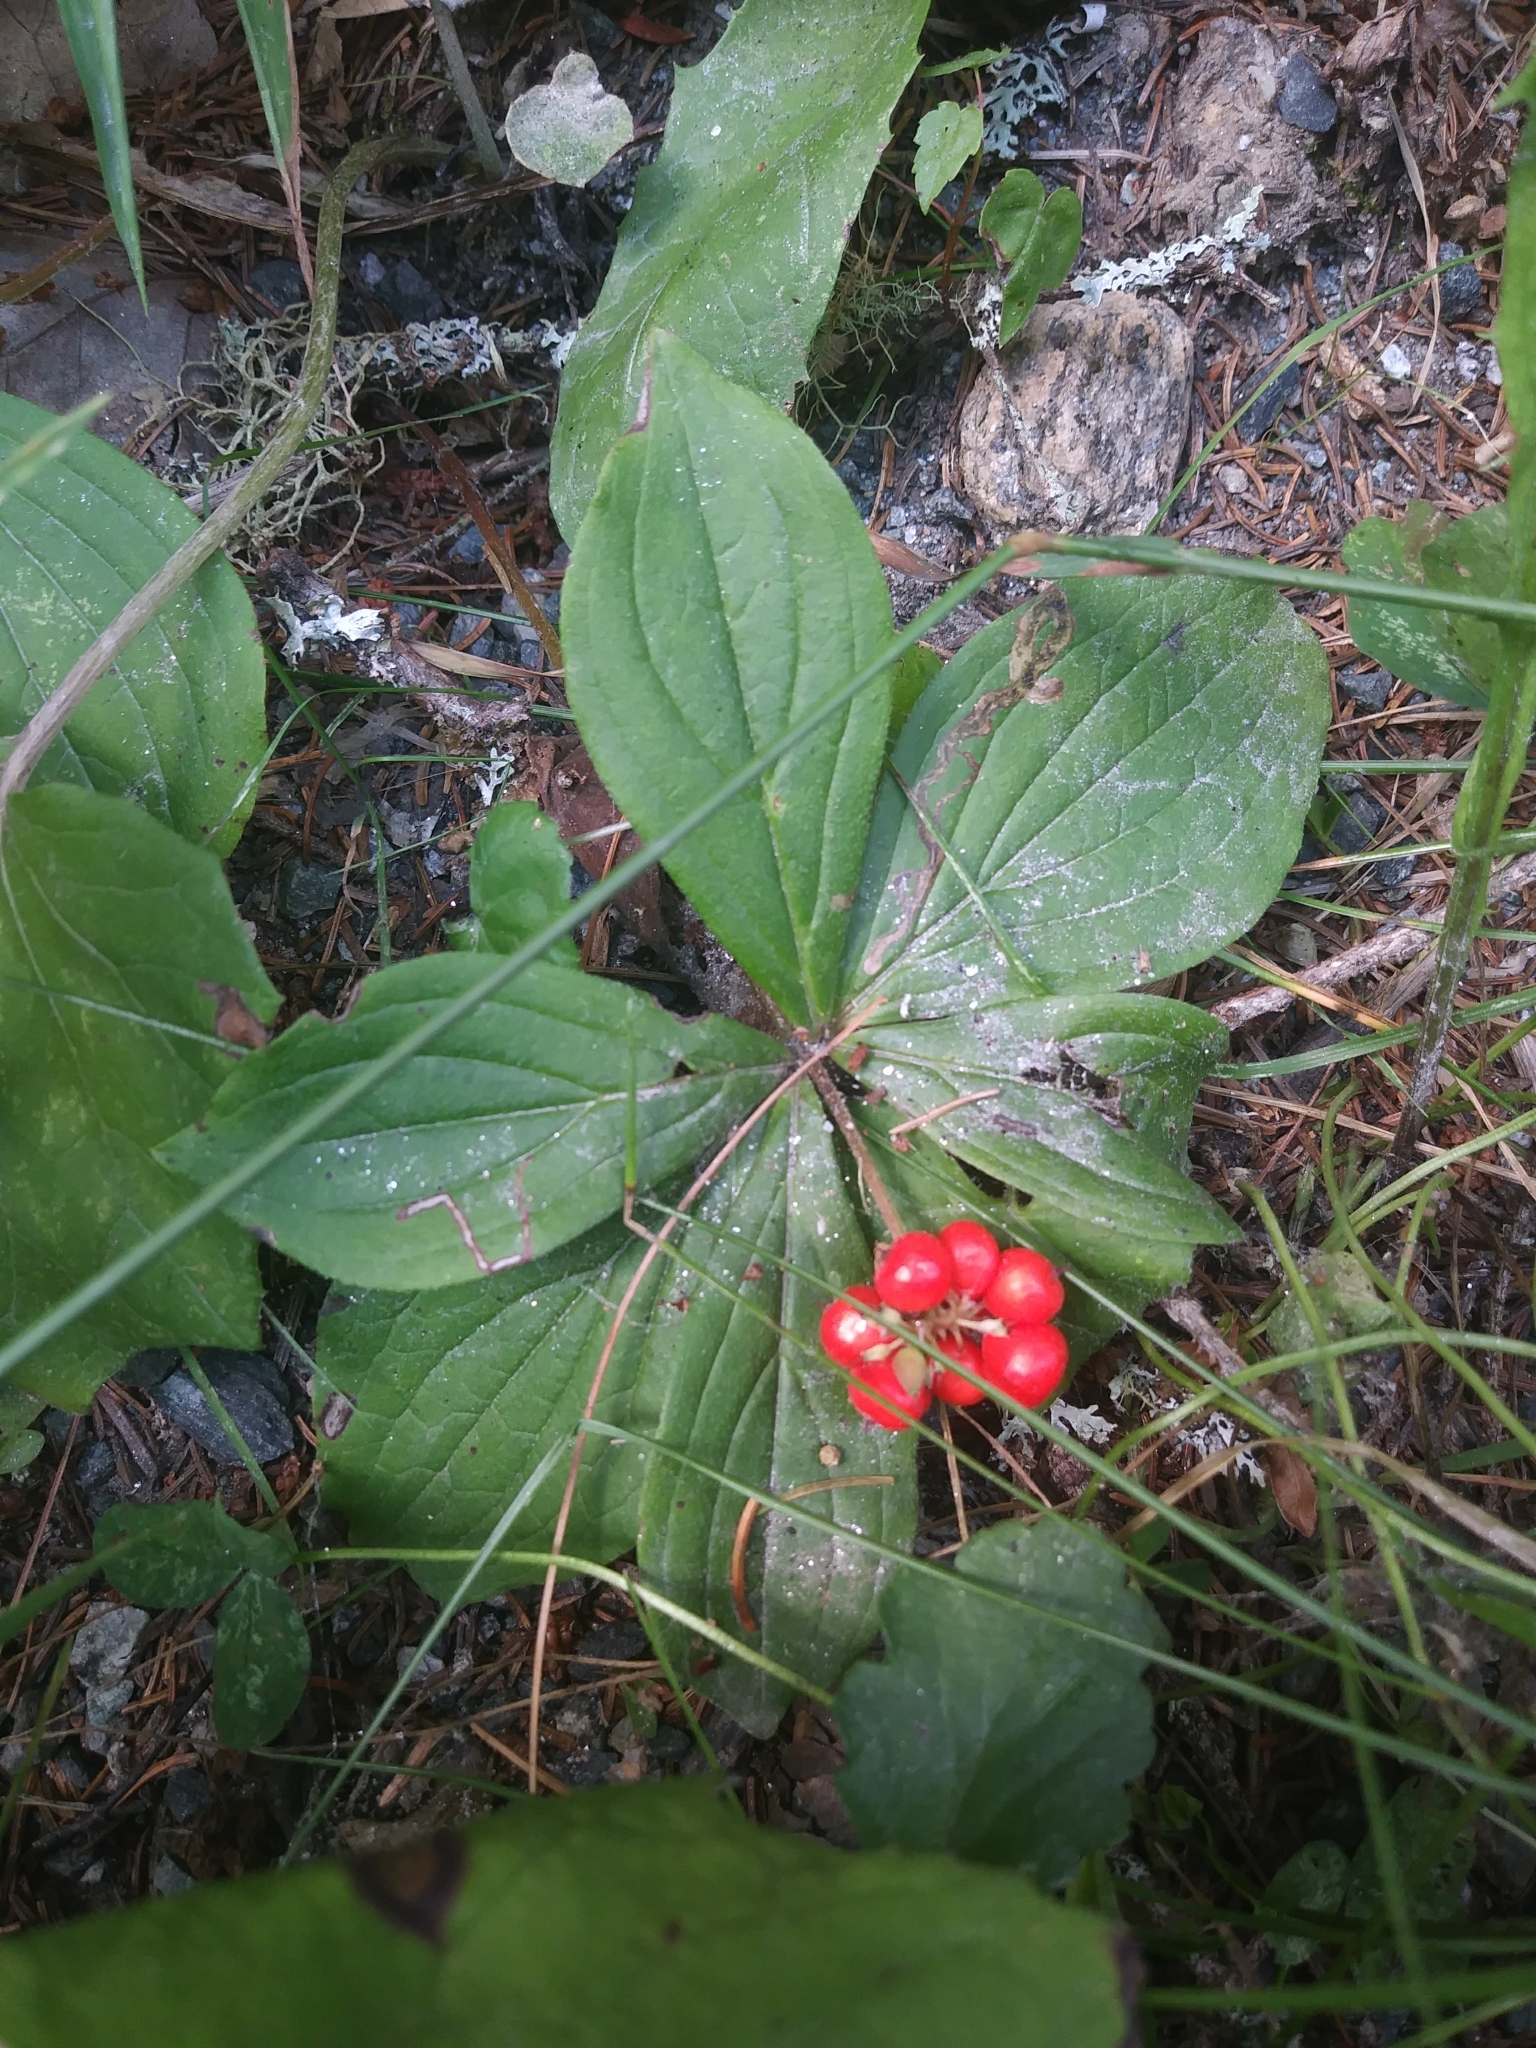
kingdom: Plantae
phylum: Tracheophyta
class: Magnoliopsida
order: Cornales
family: Cornaceae
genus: Cornus
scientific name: Cornus canadensis
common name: Creeping dogwood
